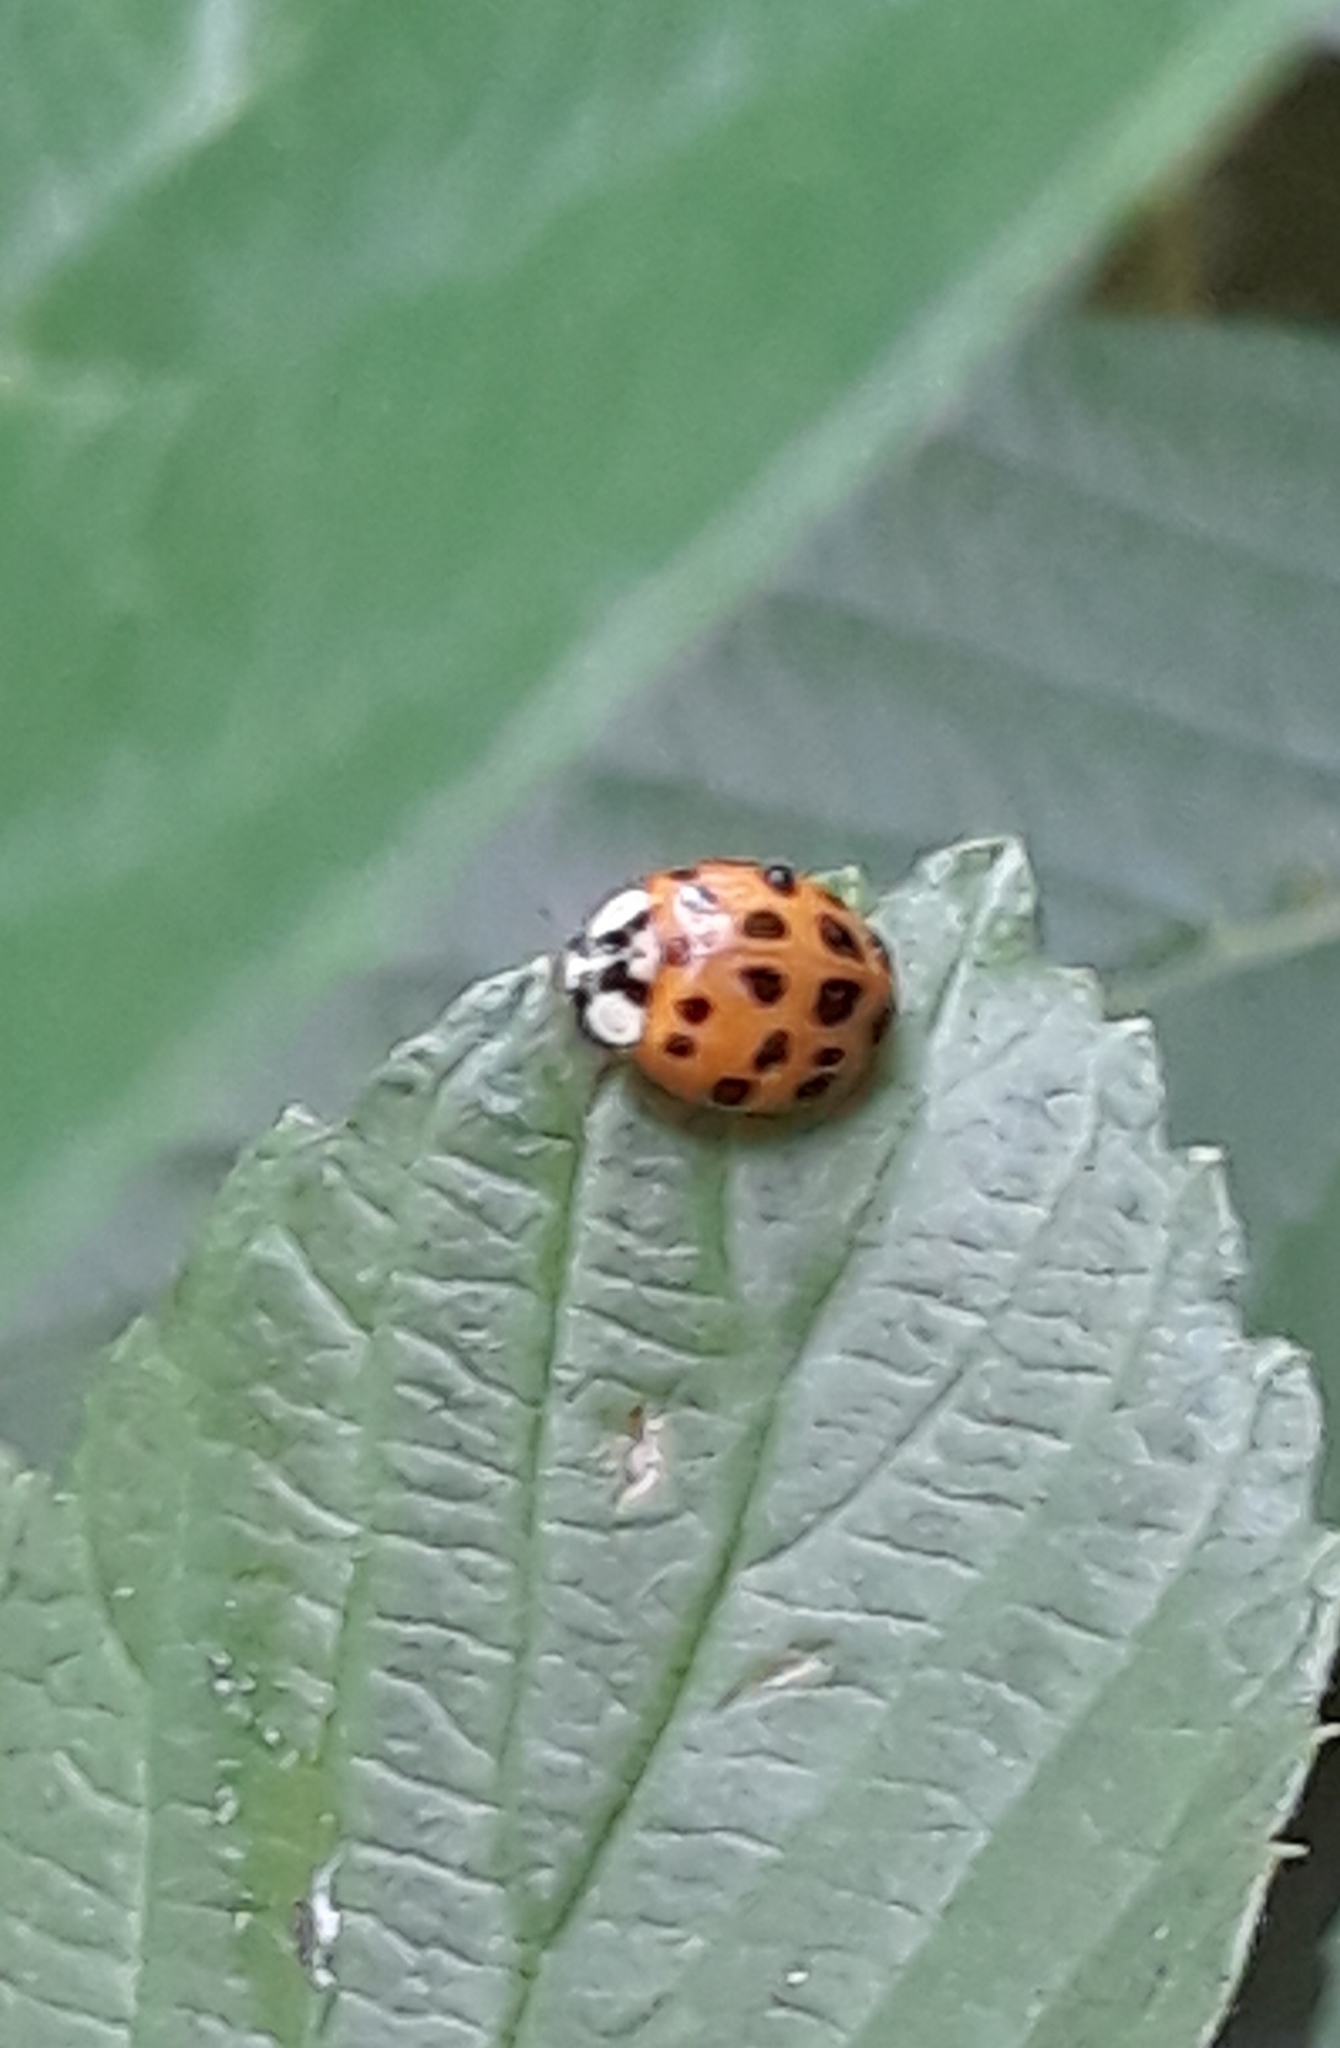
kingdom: Animalia
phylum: Arthropoda
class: Insecta
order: Coleoptera
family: Coccinellidae
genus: Harmonia
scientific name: Harmonia axyridis
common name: Harlequin ladybird
